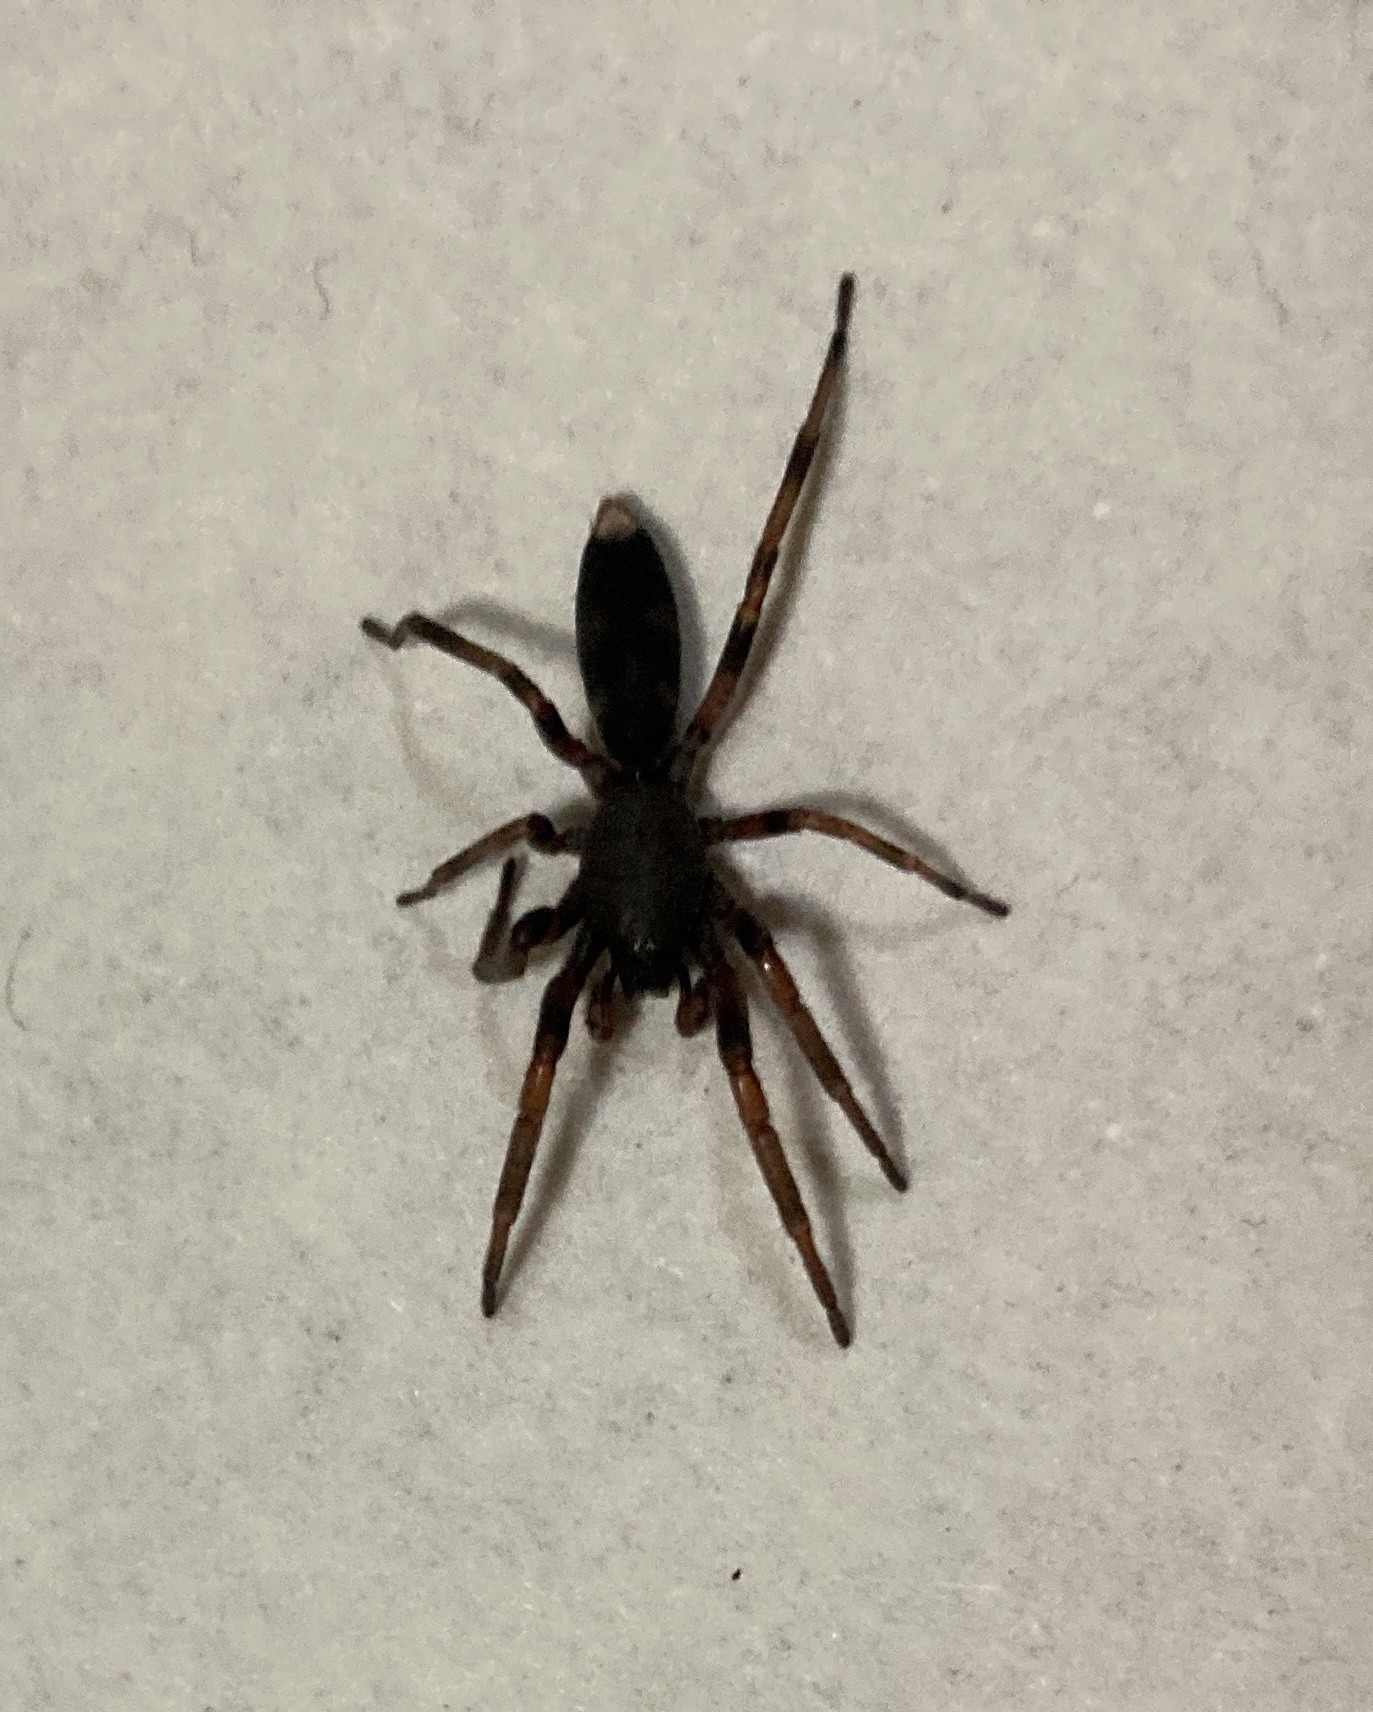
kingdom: Animalia
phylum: Arthropoda
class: Arachnida
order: Araneae
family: Lamponidae
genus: Lampona
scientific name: Lampona murina
